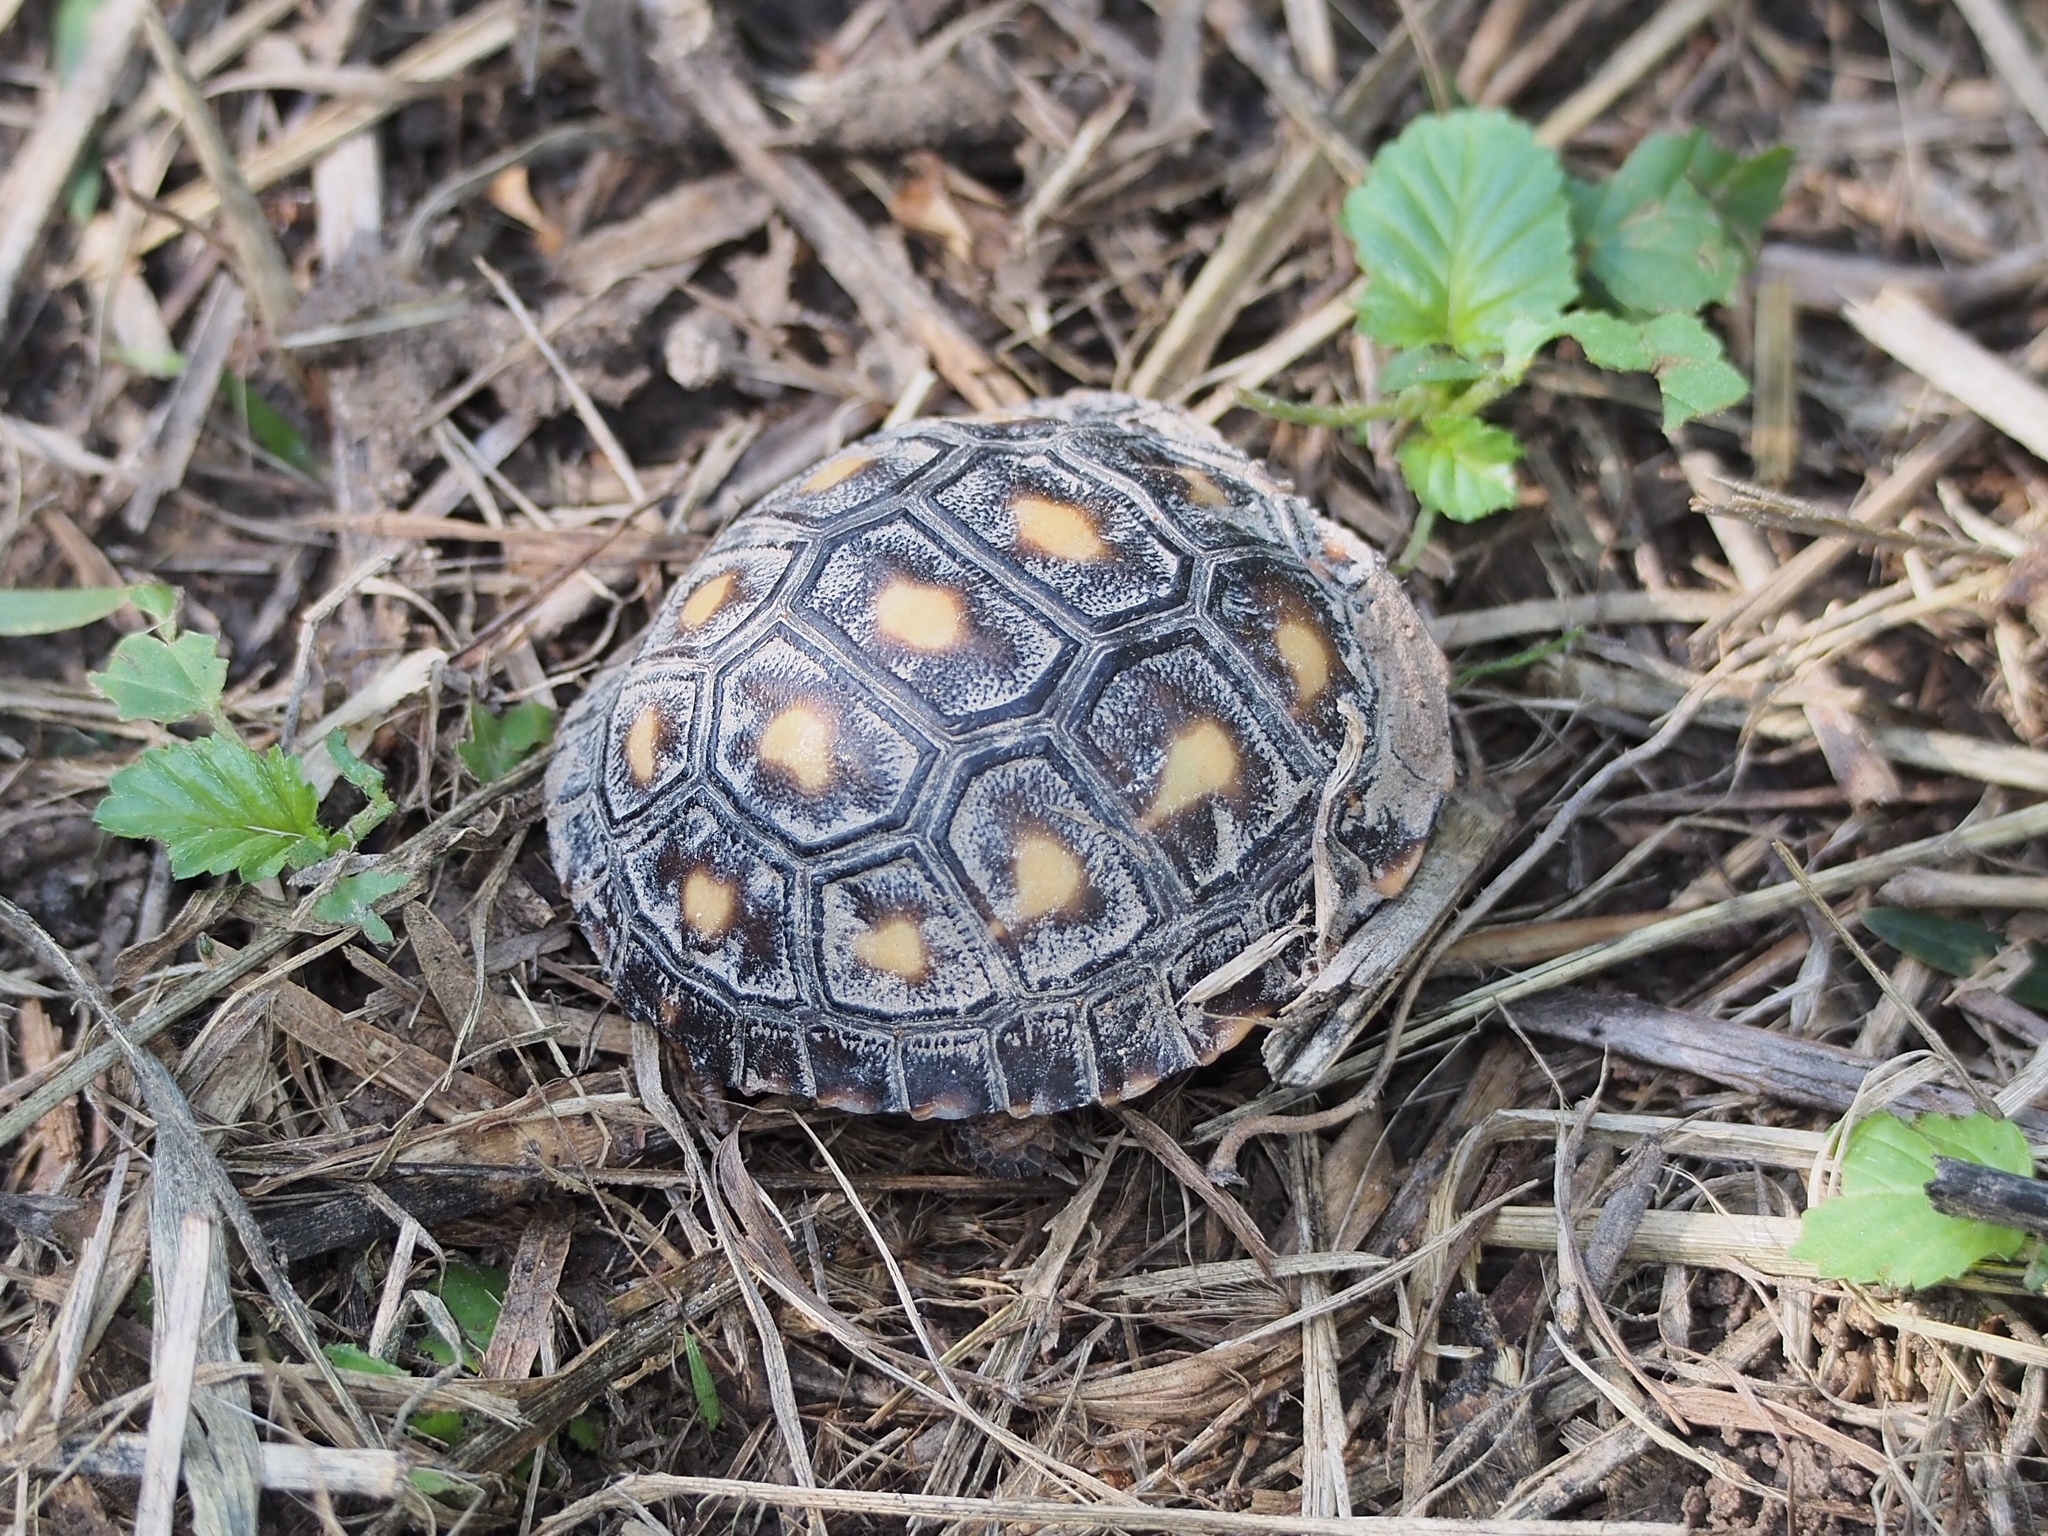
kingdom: Animalia
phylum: Chordata
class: Testudines
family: Testudinidae
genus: Gopherus
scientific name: Gopherus berlandieri
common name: Texas (gopher )tortoise
